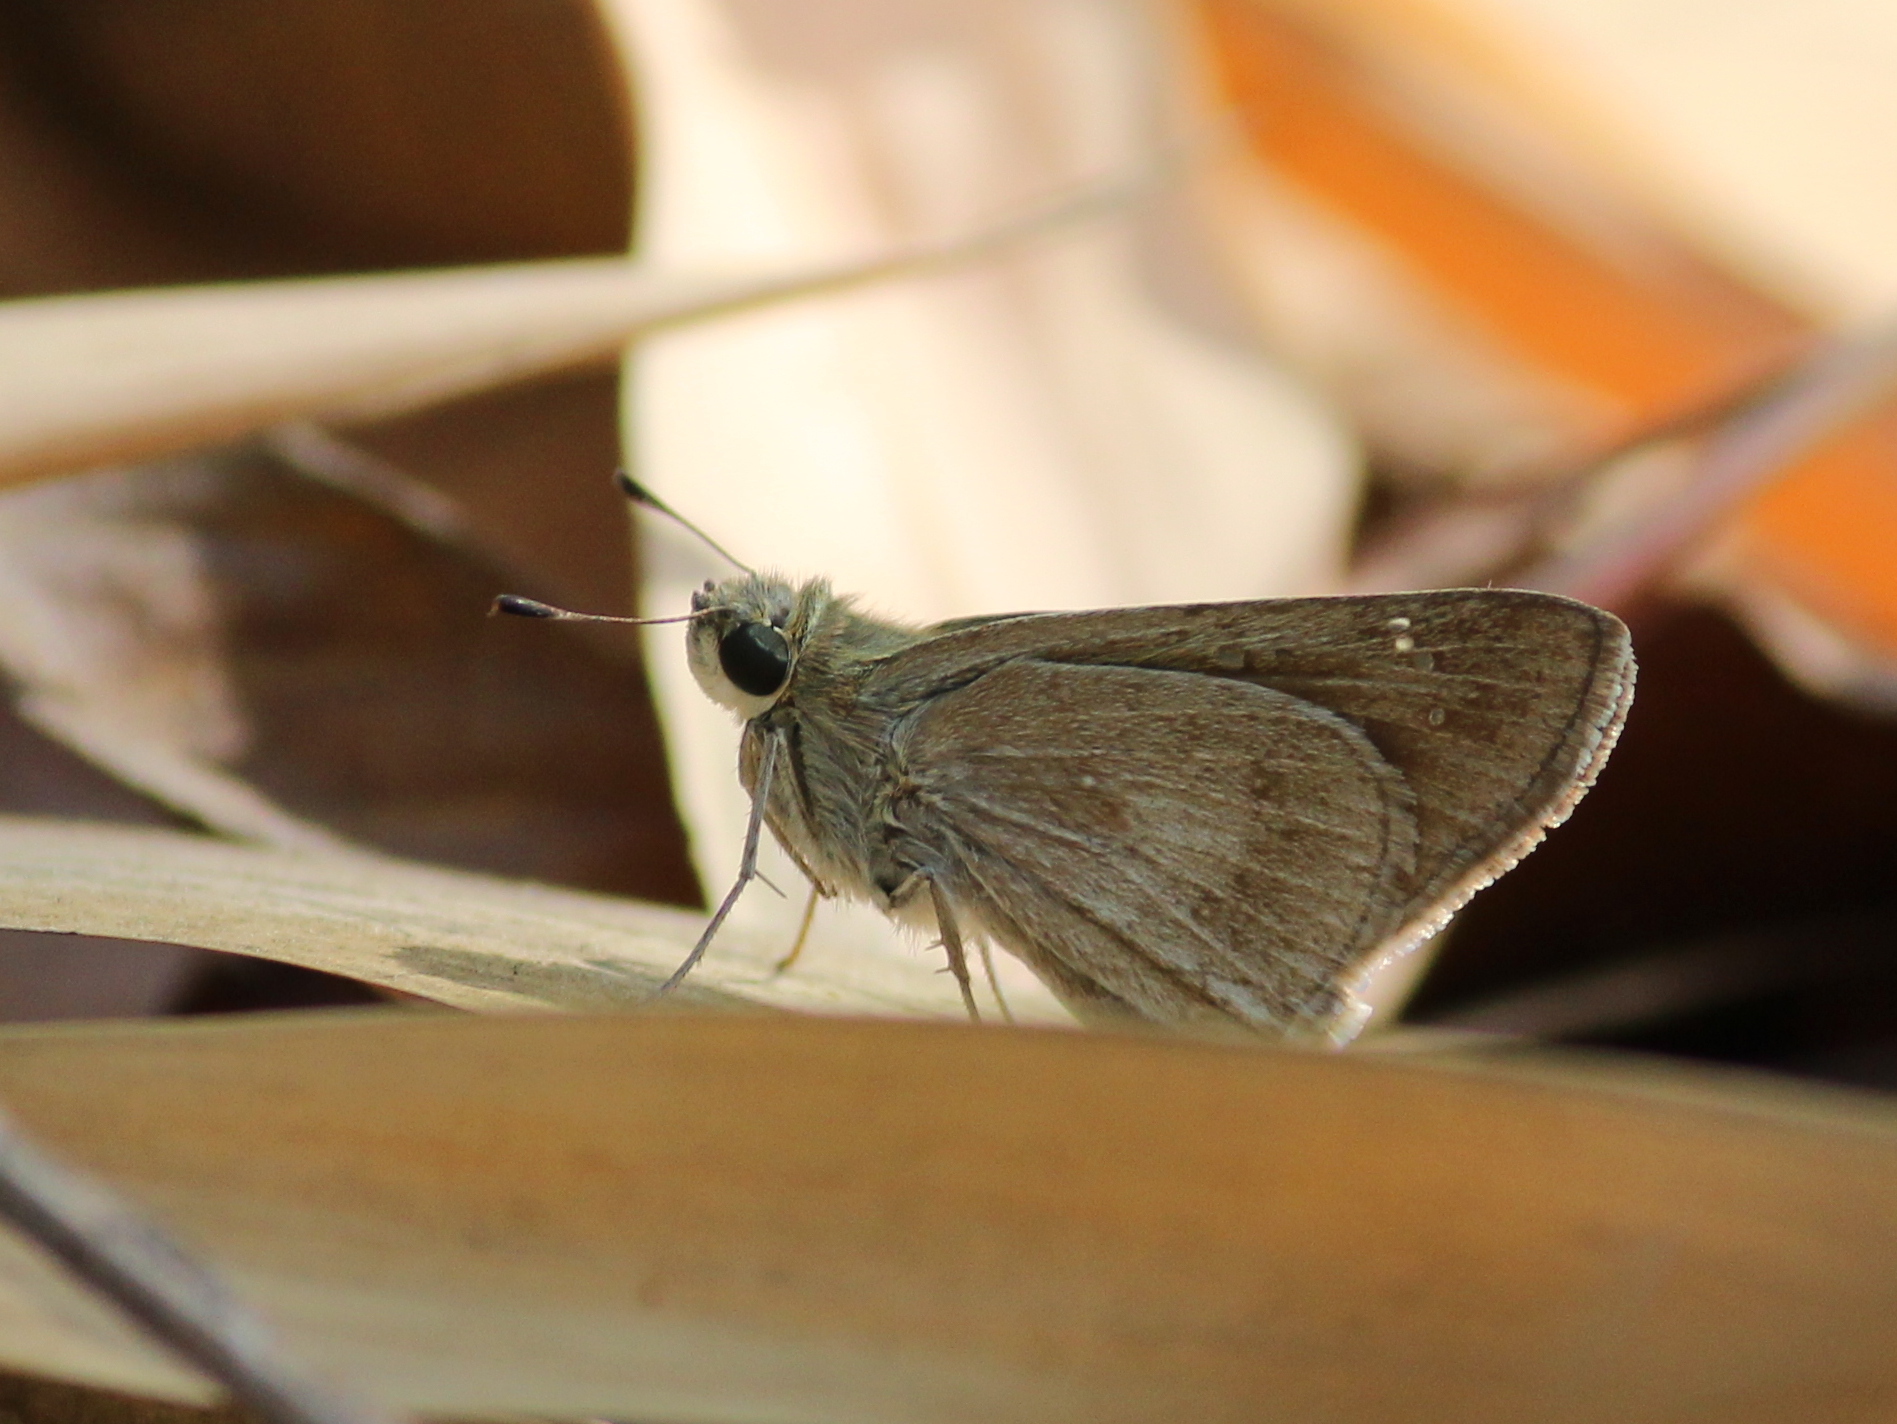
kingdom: Animalia
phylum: Arthropoda
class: Insecta
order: Lepidoptera
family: Hesperiidae
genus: Pelopidas
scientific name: Pelopidas mathias
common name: Black-branded swift
